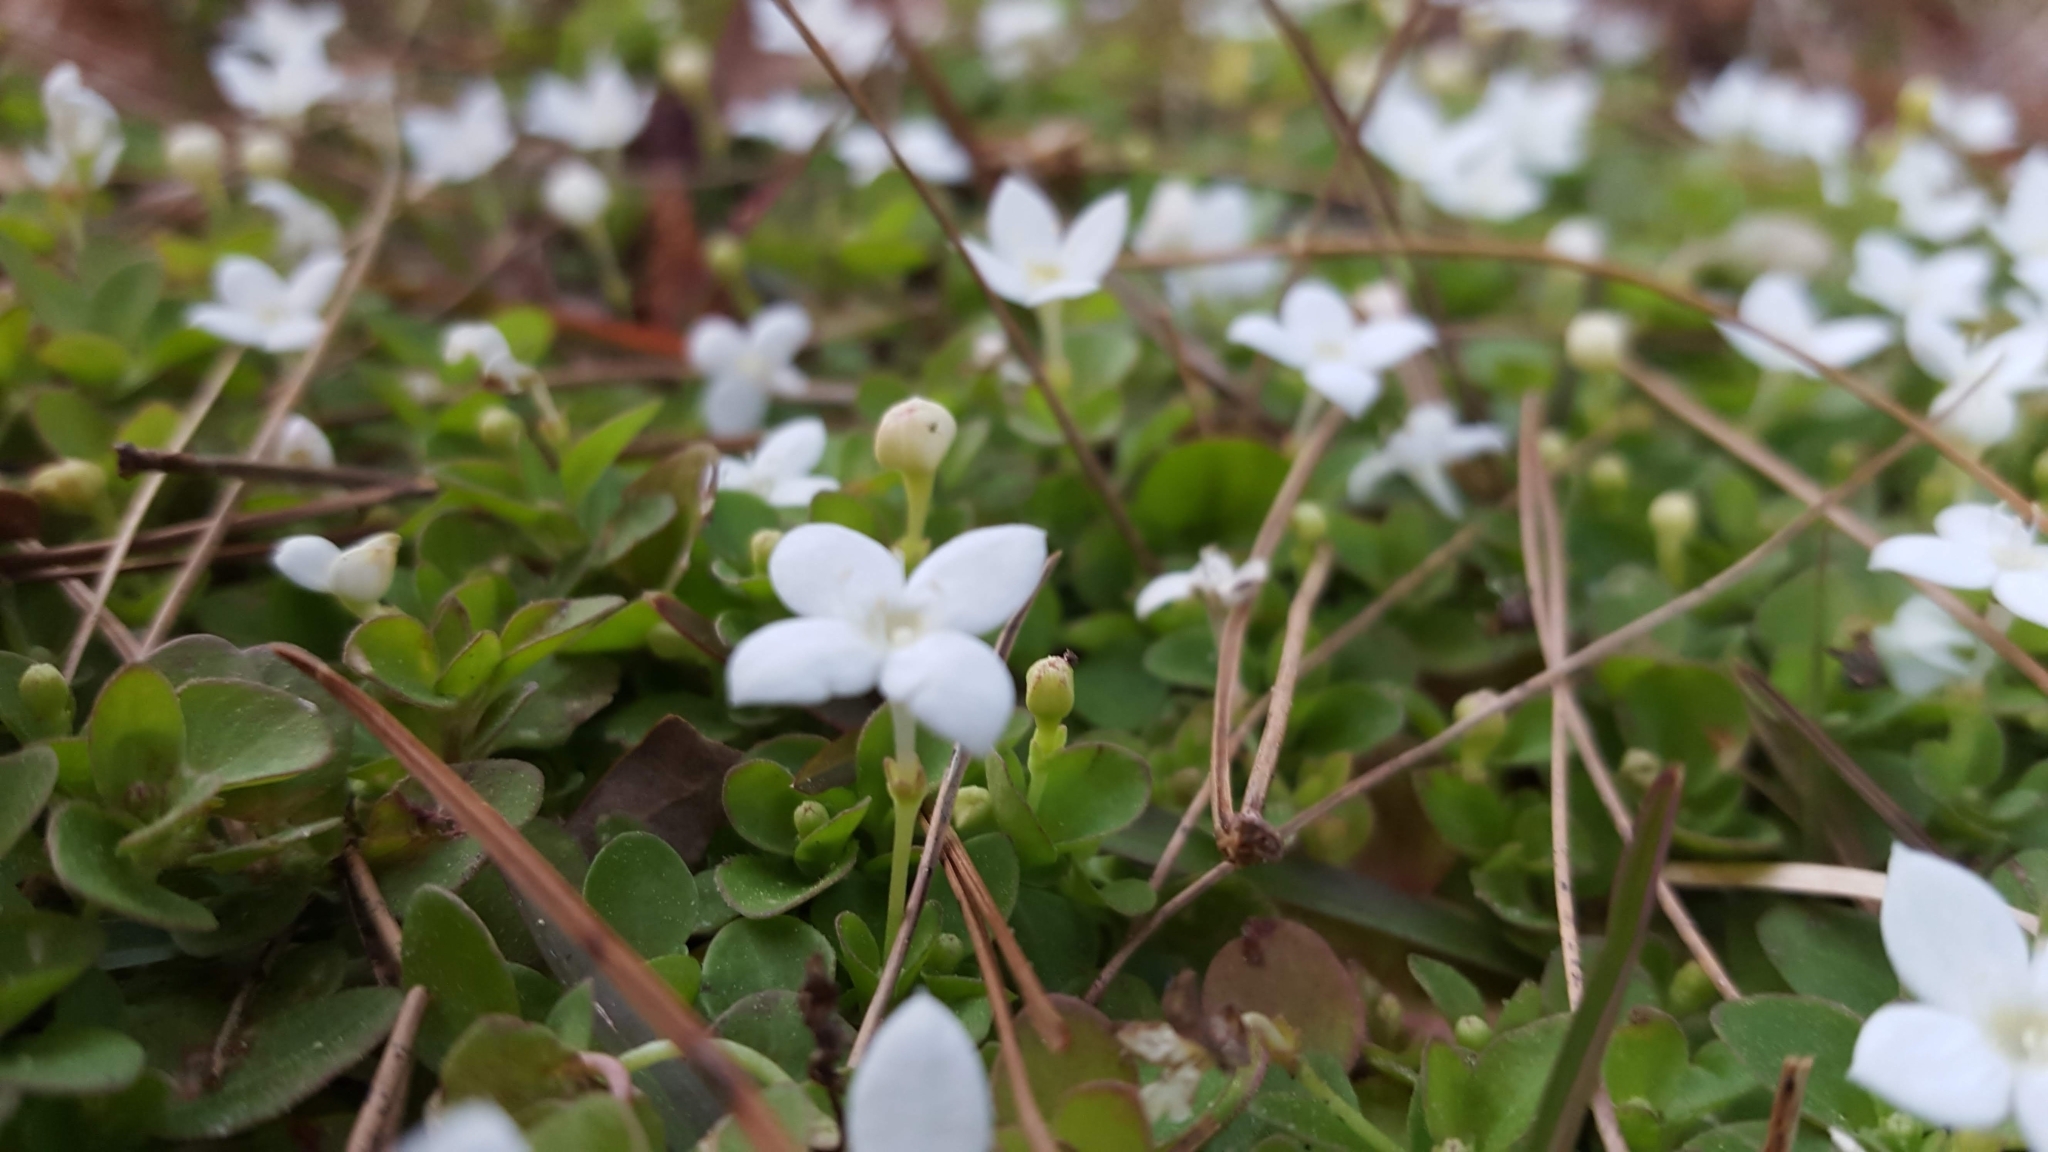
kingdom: Plantae
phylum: Tracheophyta
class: Magnoliopsida
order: Gentianales
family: Rubiaceae
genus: Houstonia
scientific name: Houstonia procumbens
